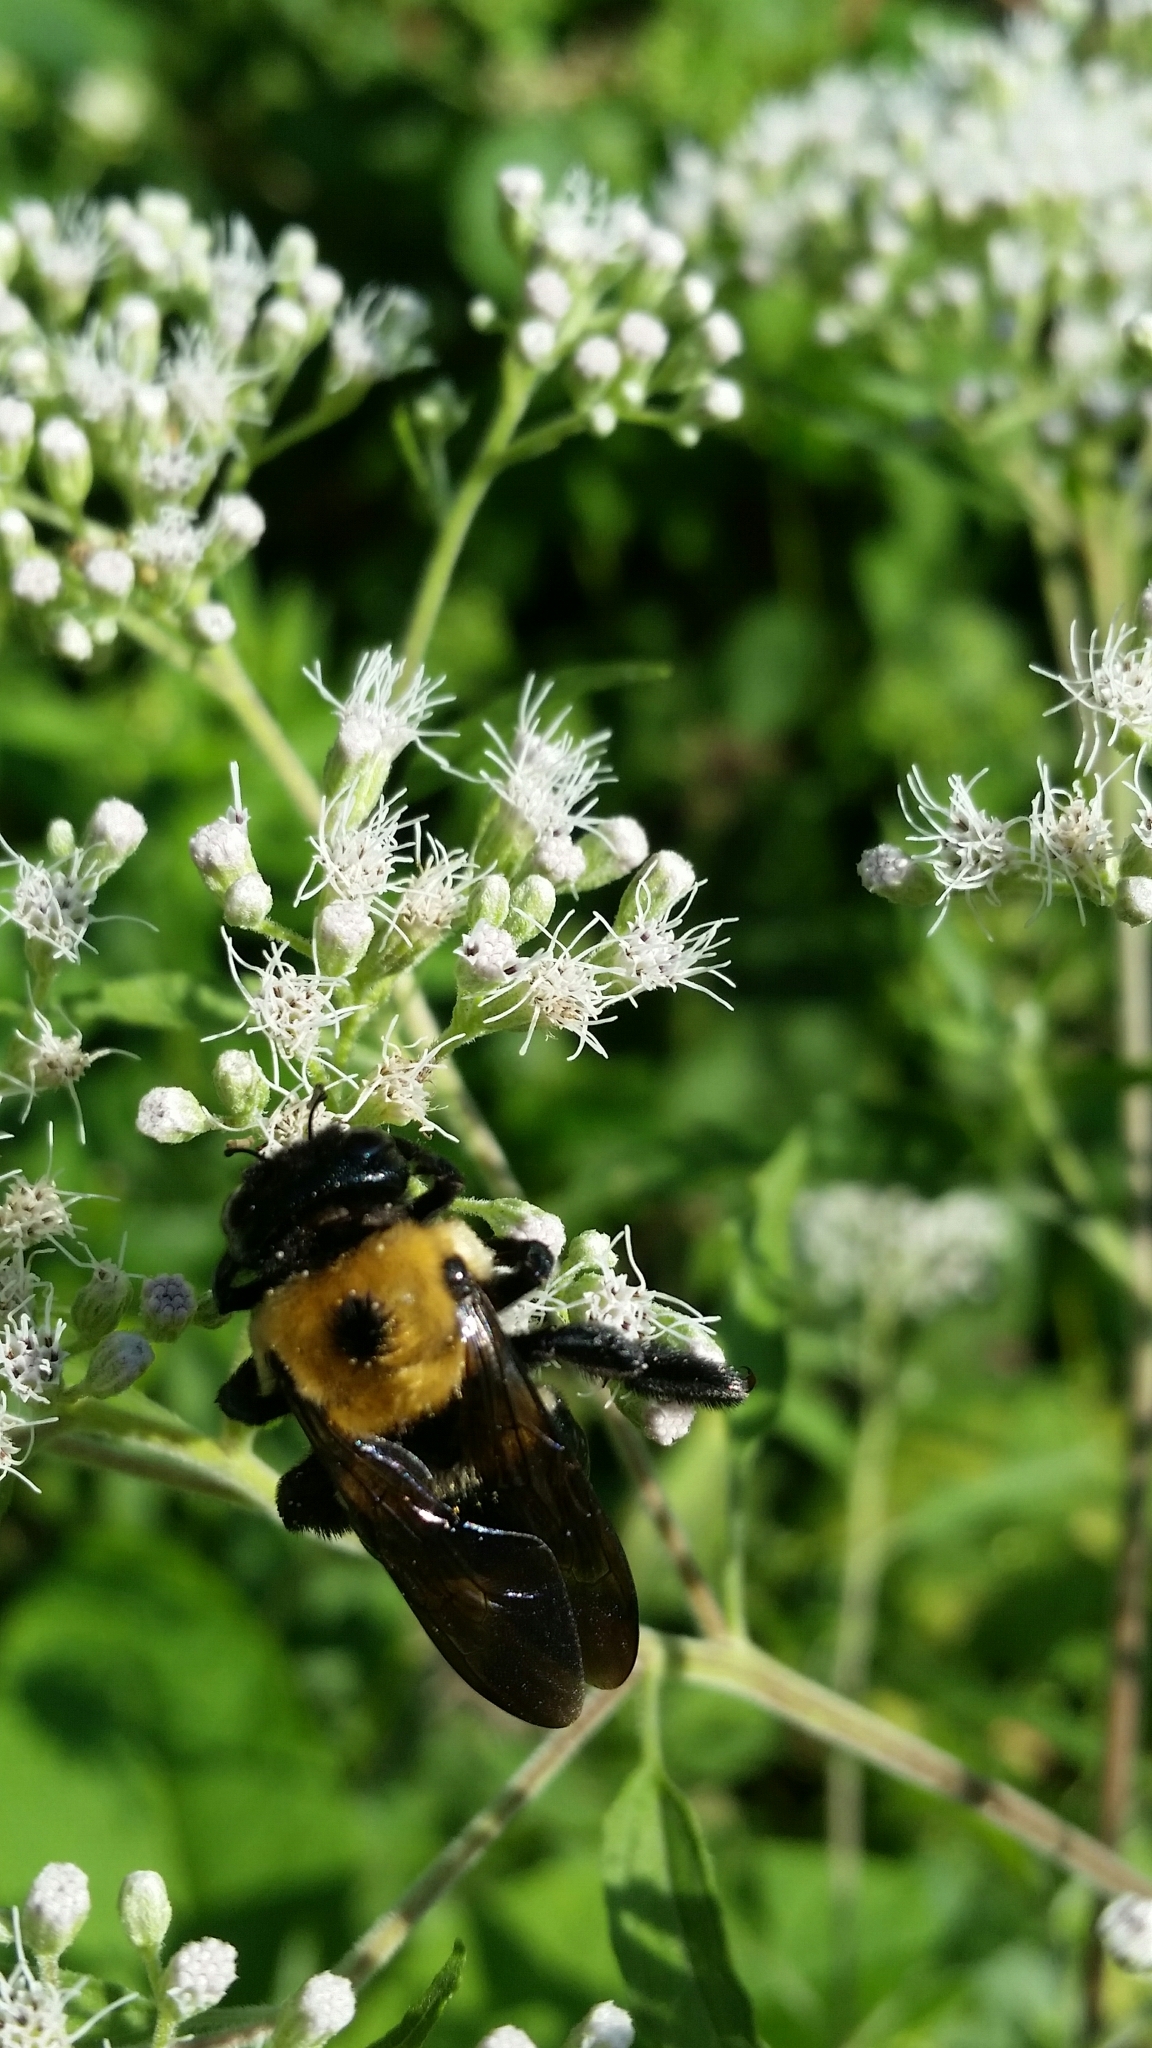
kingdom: Animalia
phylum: Arthropoda
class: Insecta
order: Hymenoptera
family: Apidae
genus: Xylocopa
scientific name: Xylocopa virginica
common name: Carpenter bee
